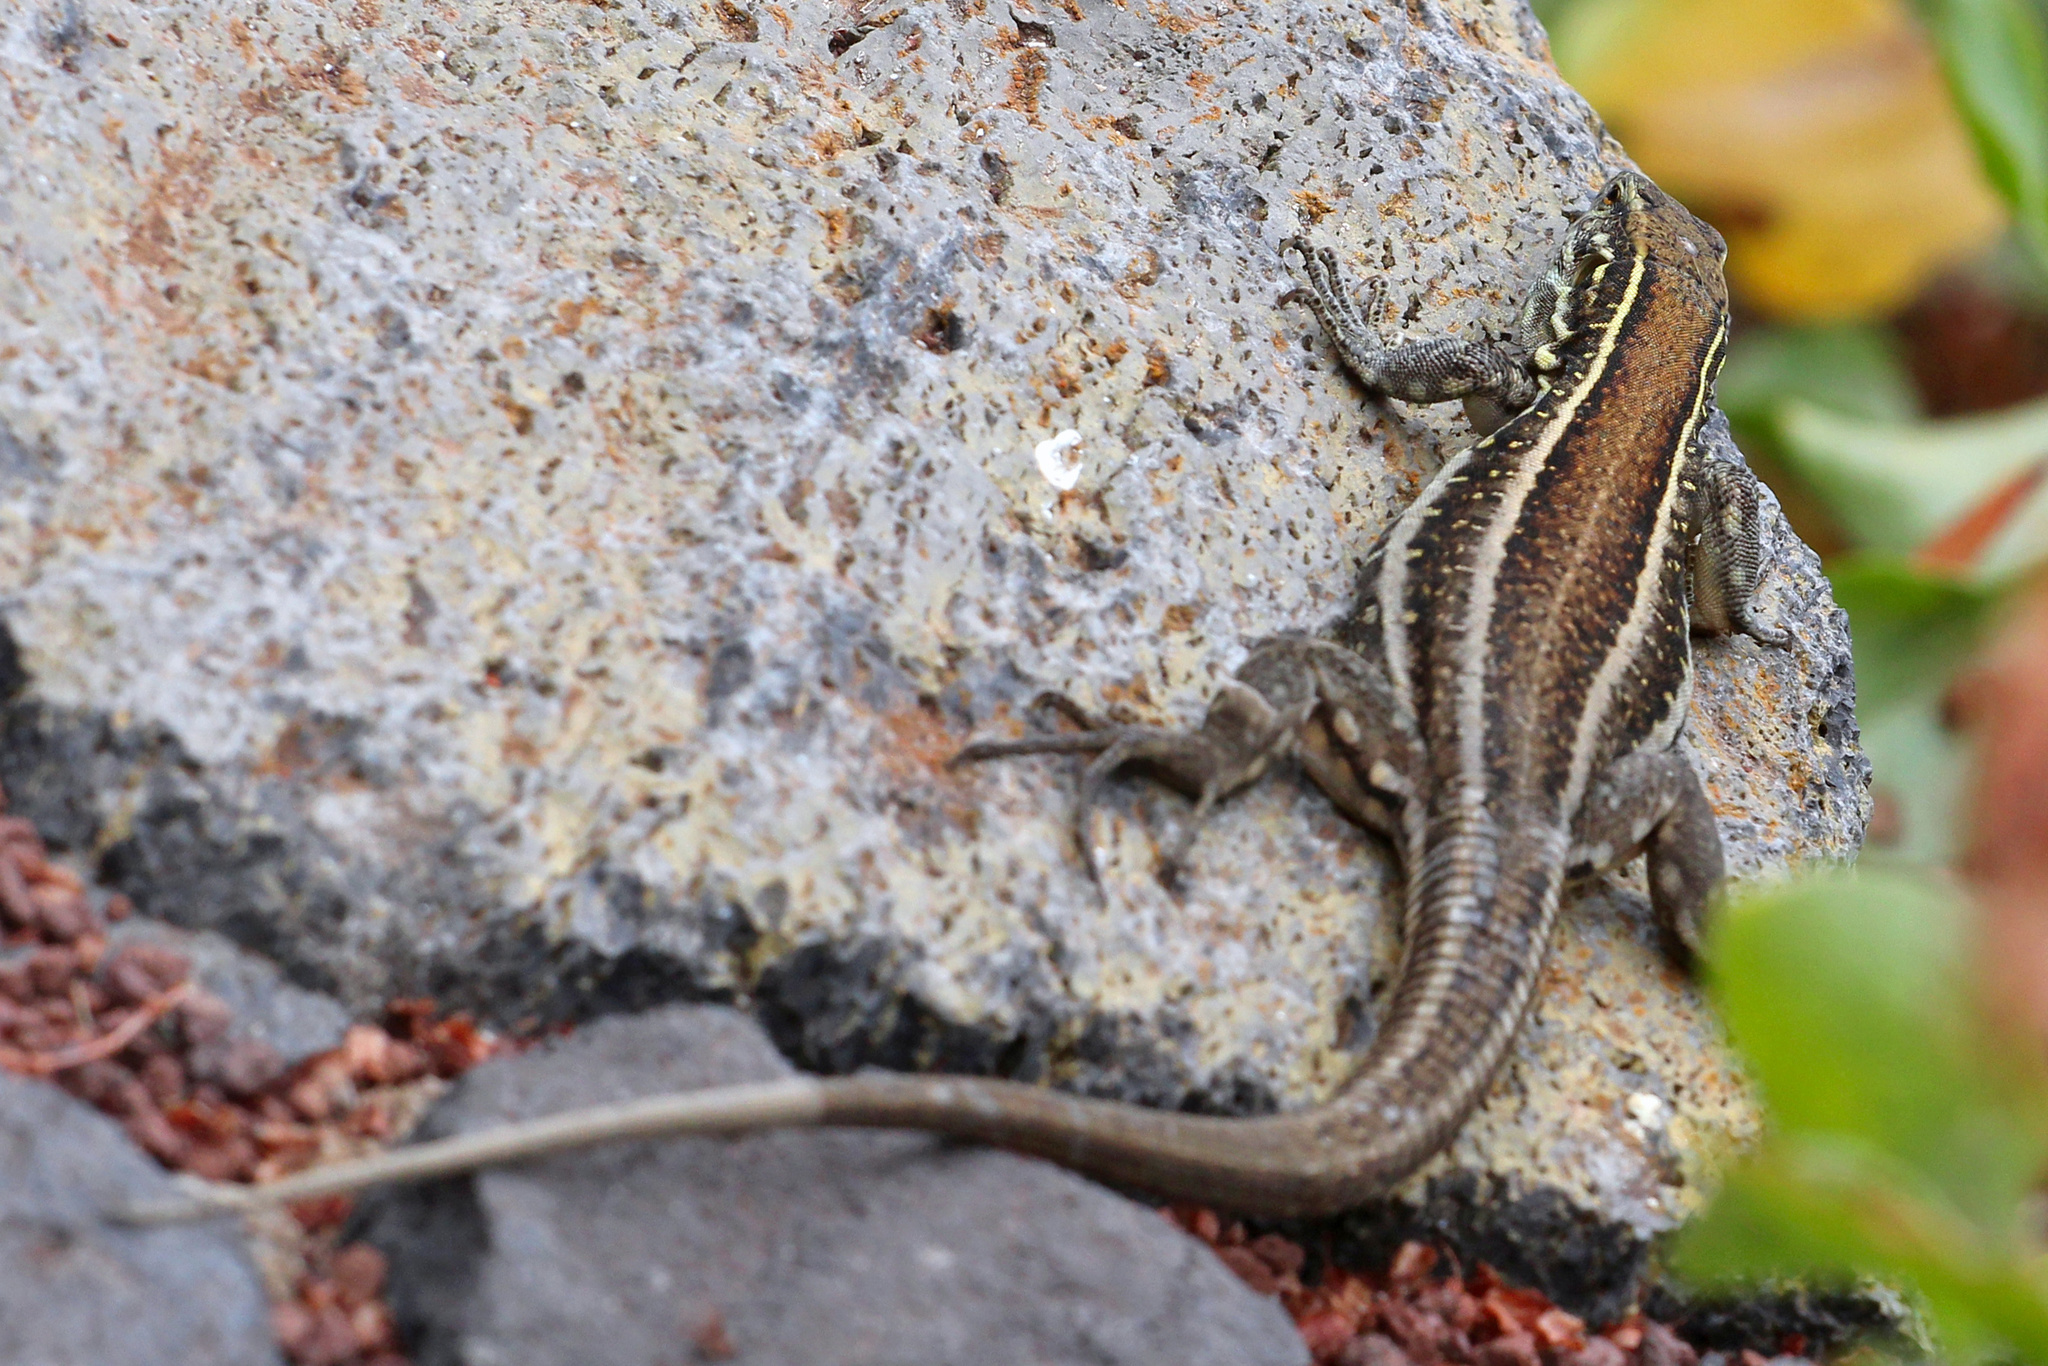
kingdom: Animalia
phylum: Chordata
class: Squamata
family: Lacertidae
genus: Gallotia
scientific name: Gallotia galloti
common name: Gallot's lizard
